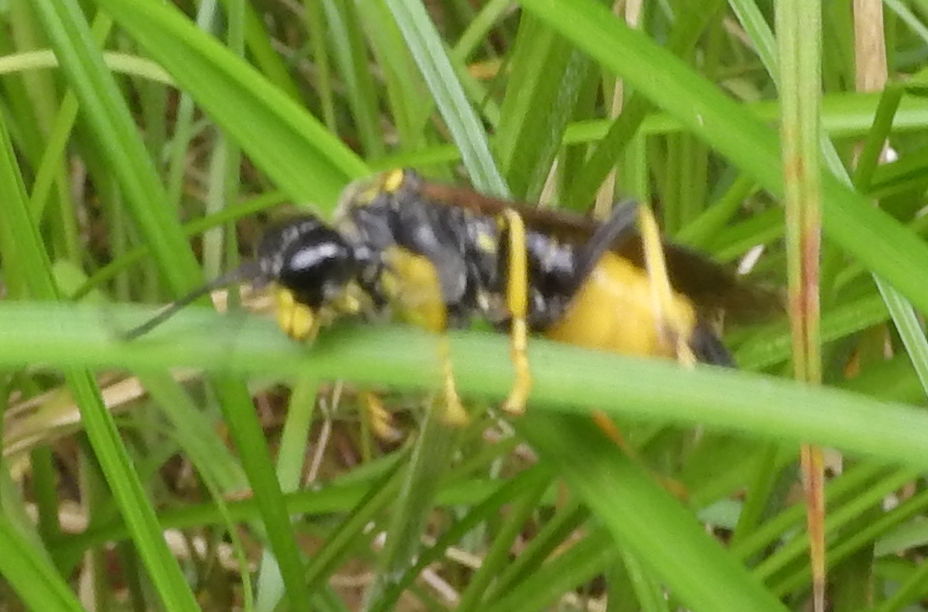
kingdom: Animalia
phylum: Arthropoda
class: Insecta
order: Hymenoptera
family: Tenthredinidae
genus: Tenthredo
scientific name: Tenthredo maculata
